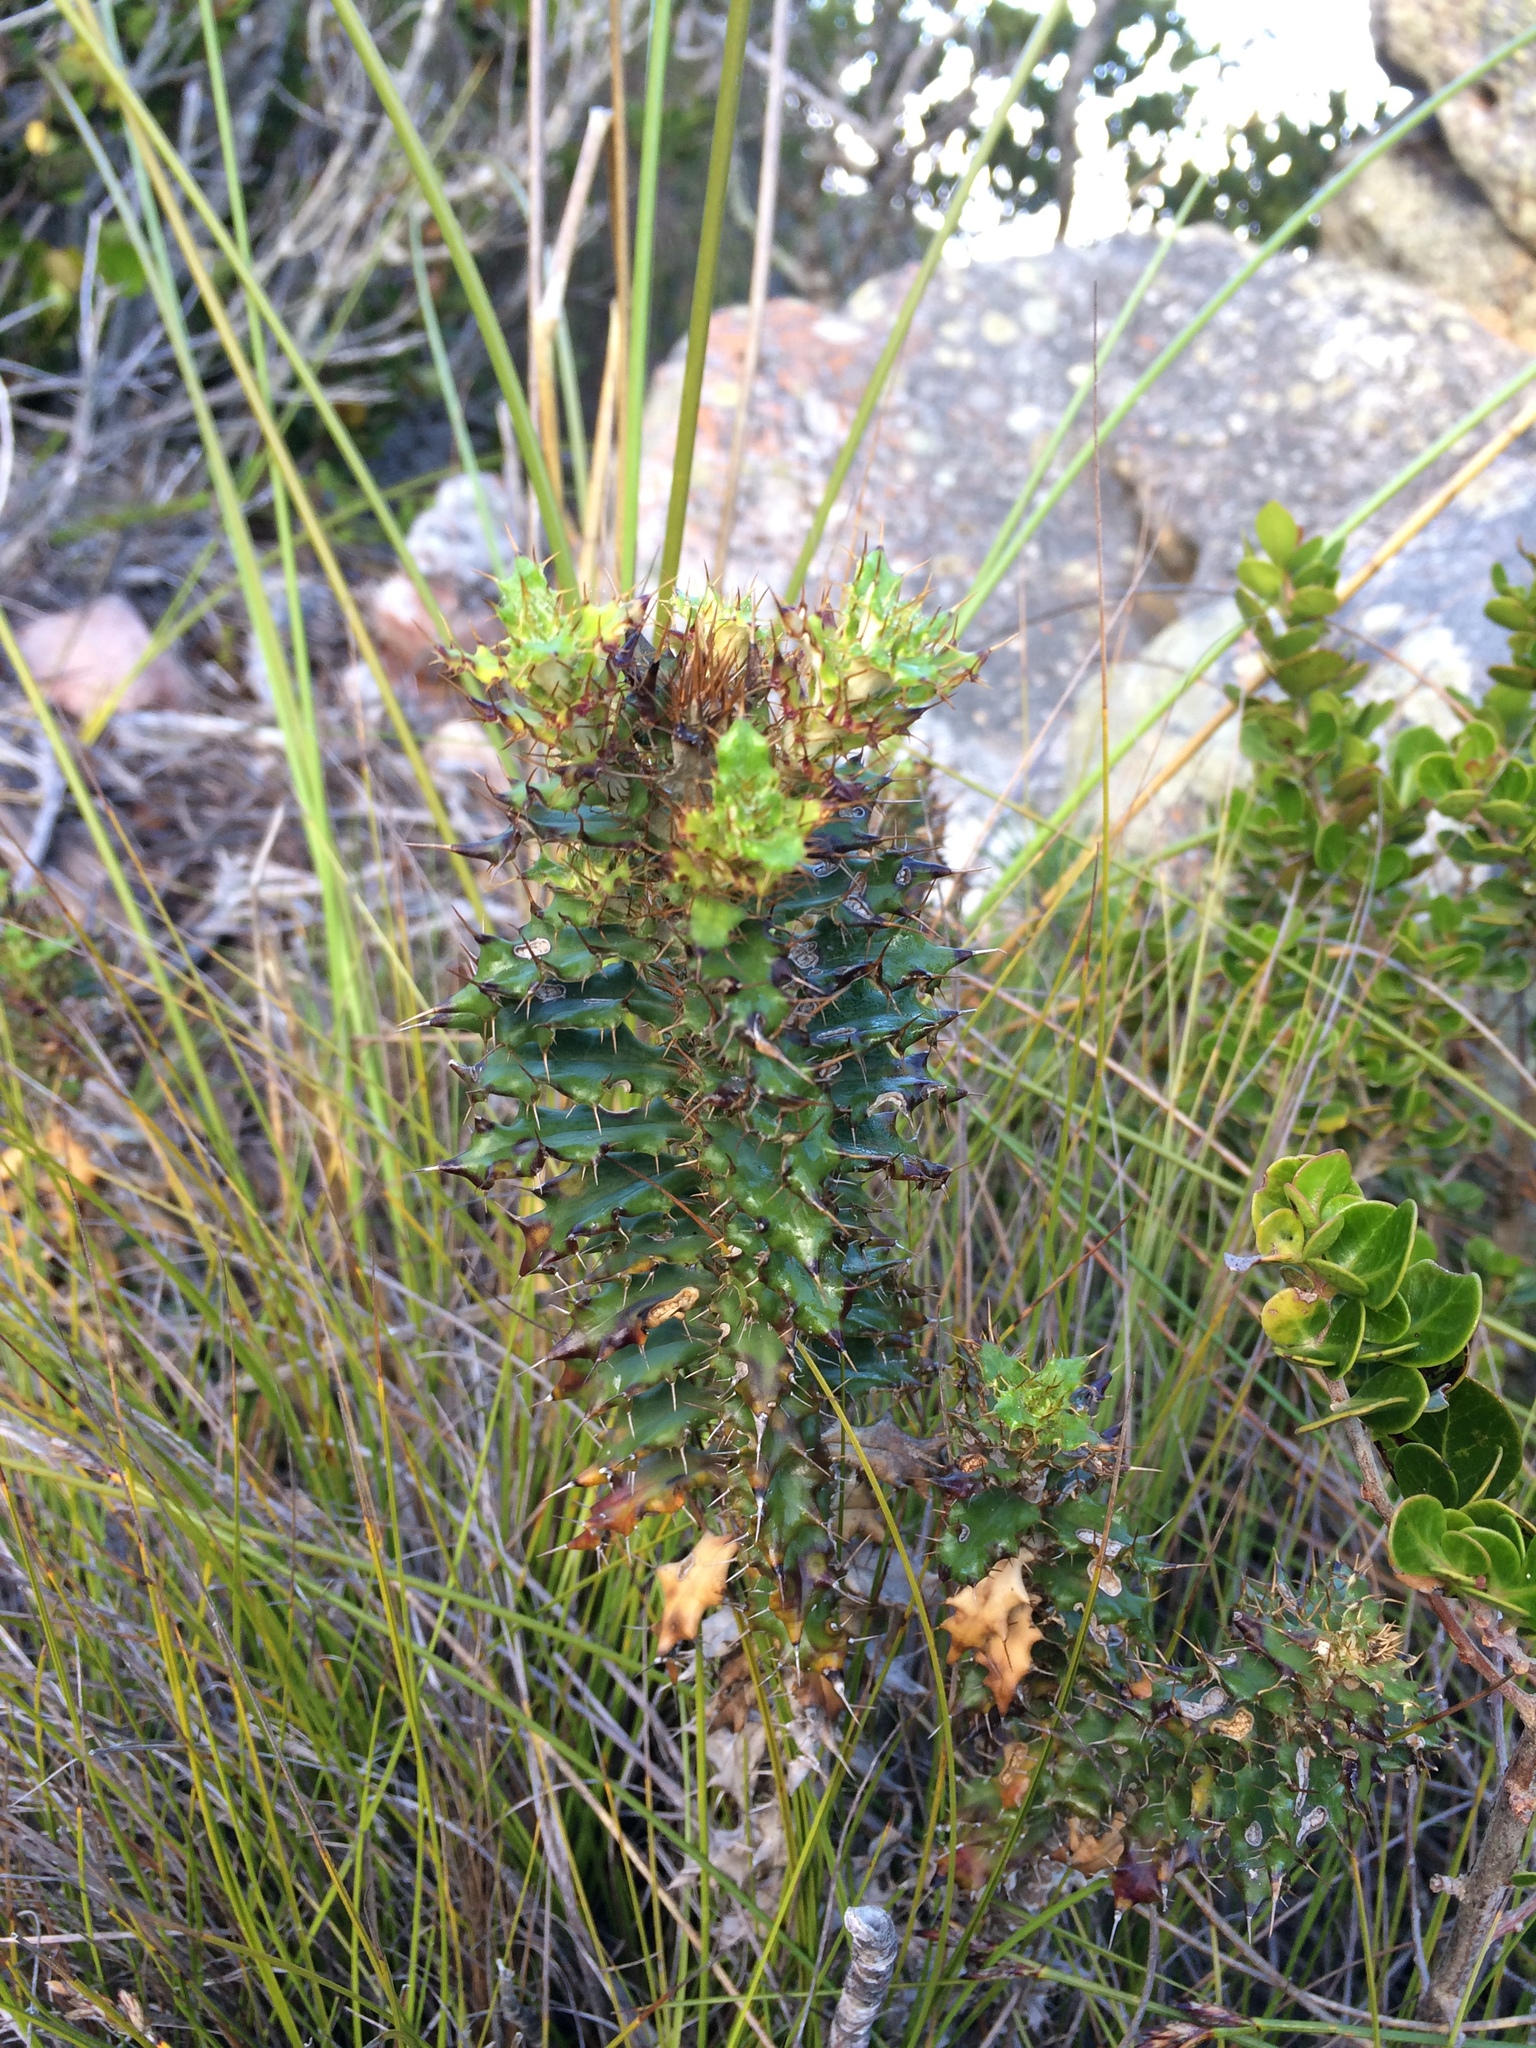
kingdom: Plantae
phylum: Tracheophyta
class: Magnoliopsida
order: Asterales
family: Asteraceae
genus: Berkheya
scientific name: Berkheya barbata
